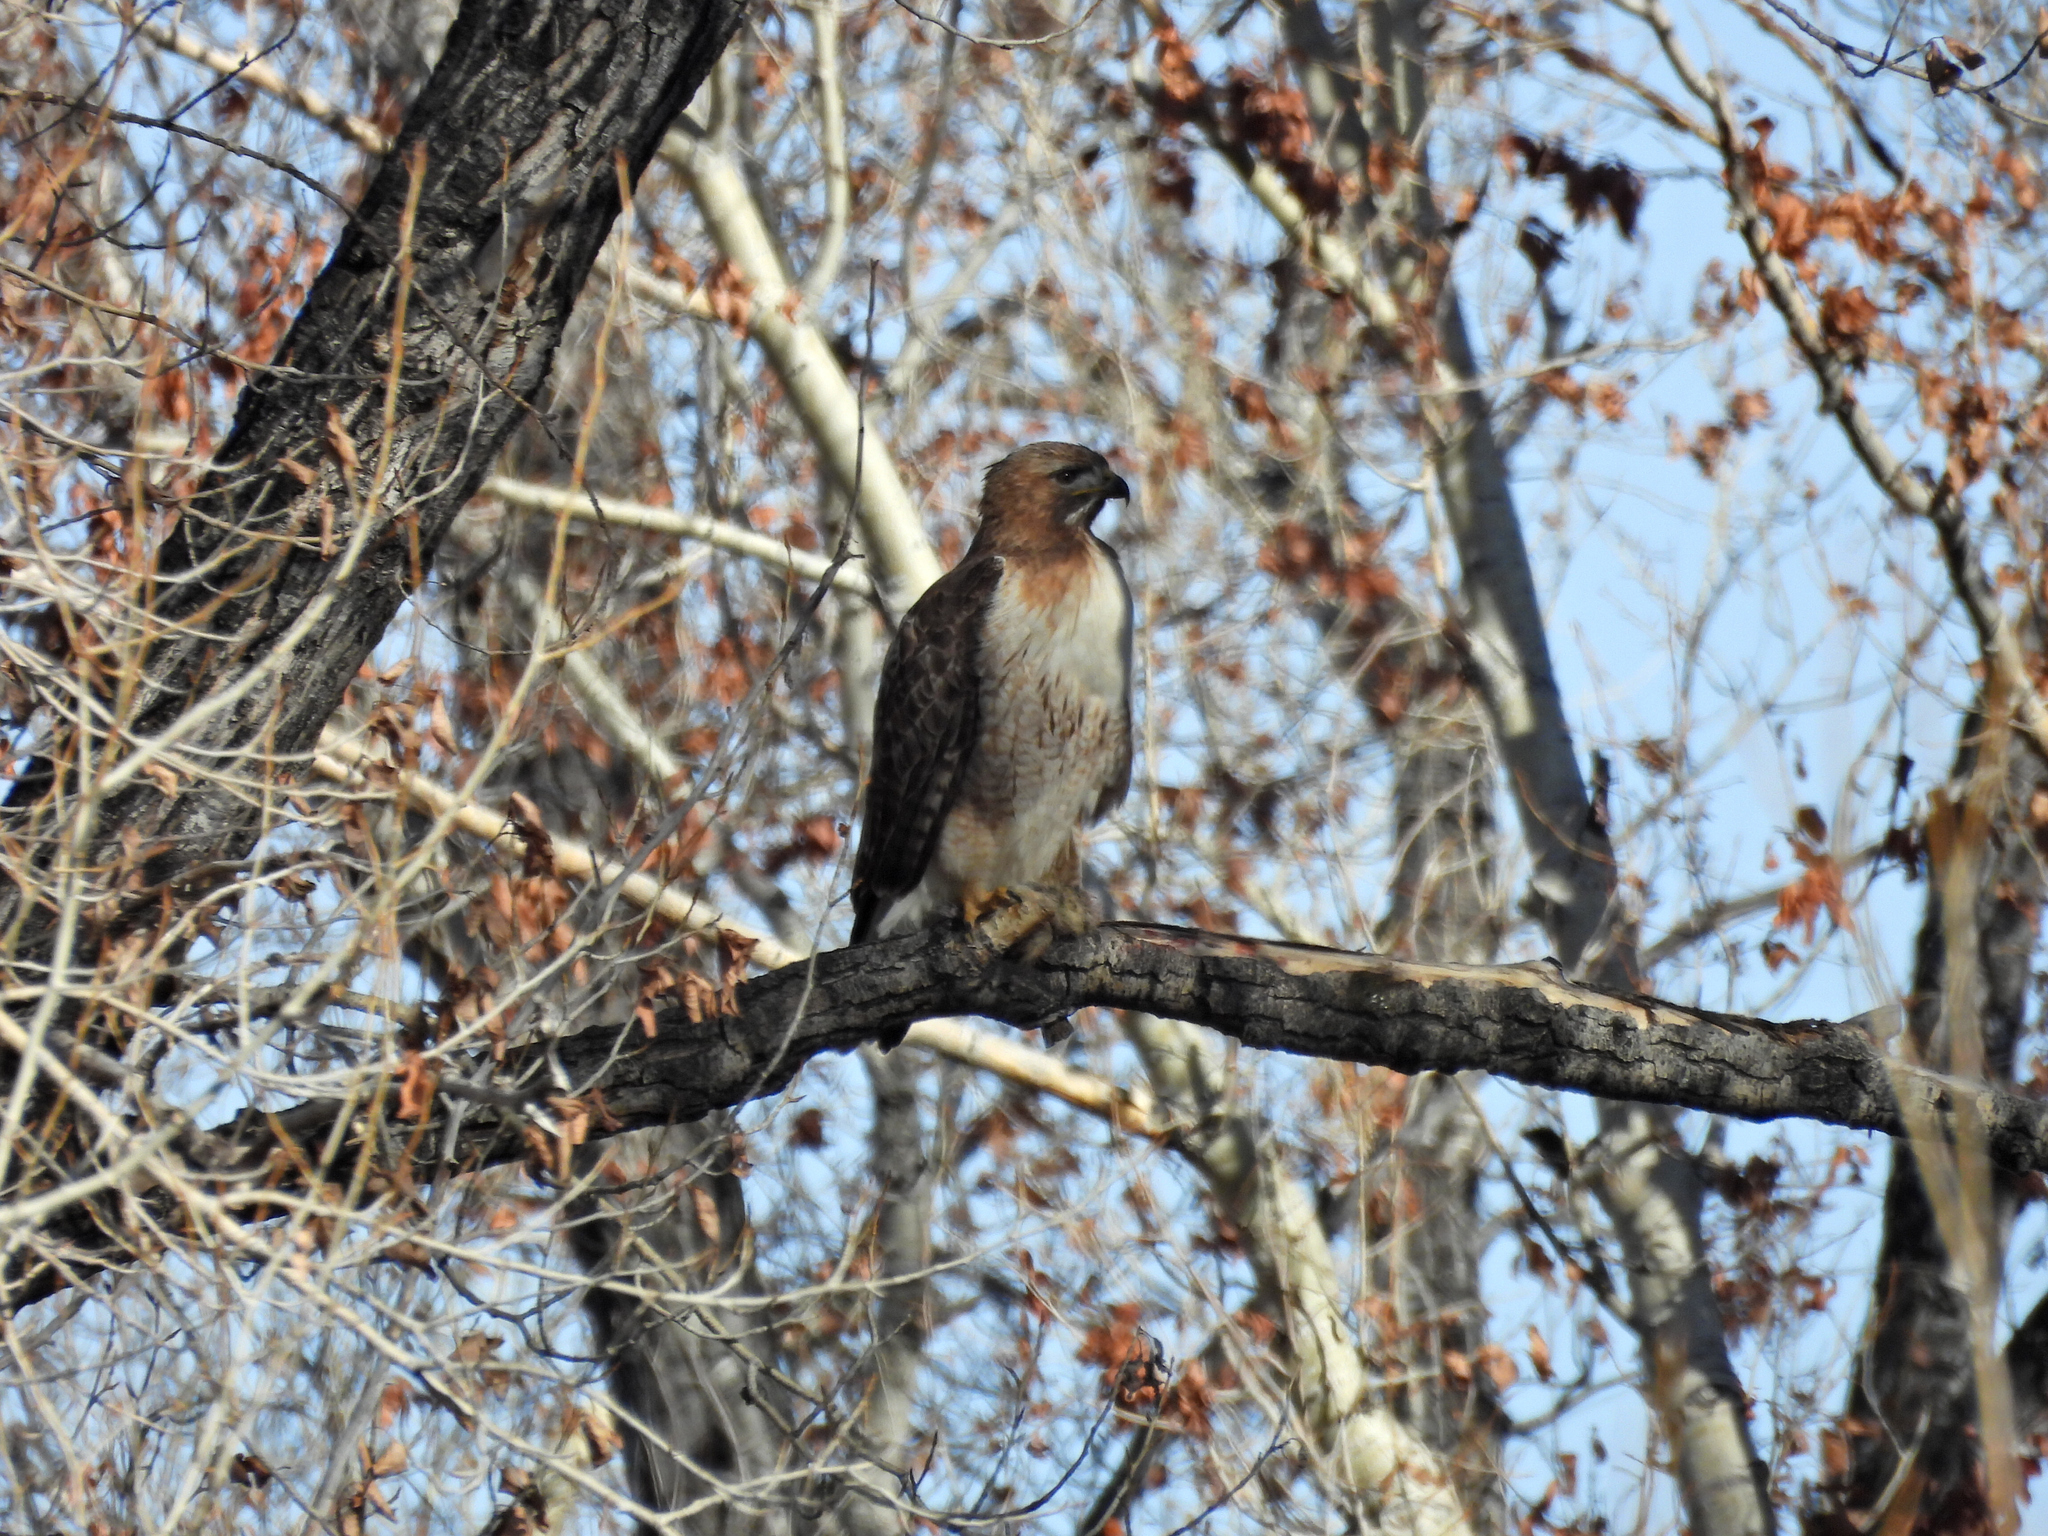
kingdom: Animalia
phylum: Chordata
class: Aves
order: Accipitriformes
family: Accipitridae
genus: Buteo
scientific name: Buteo jamaicensis
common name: Red-tailed hawk
